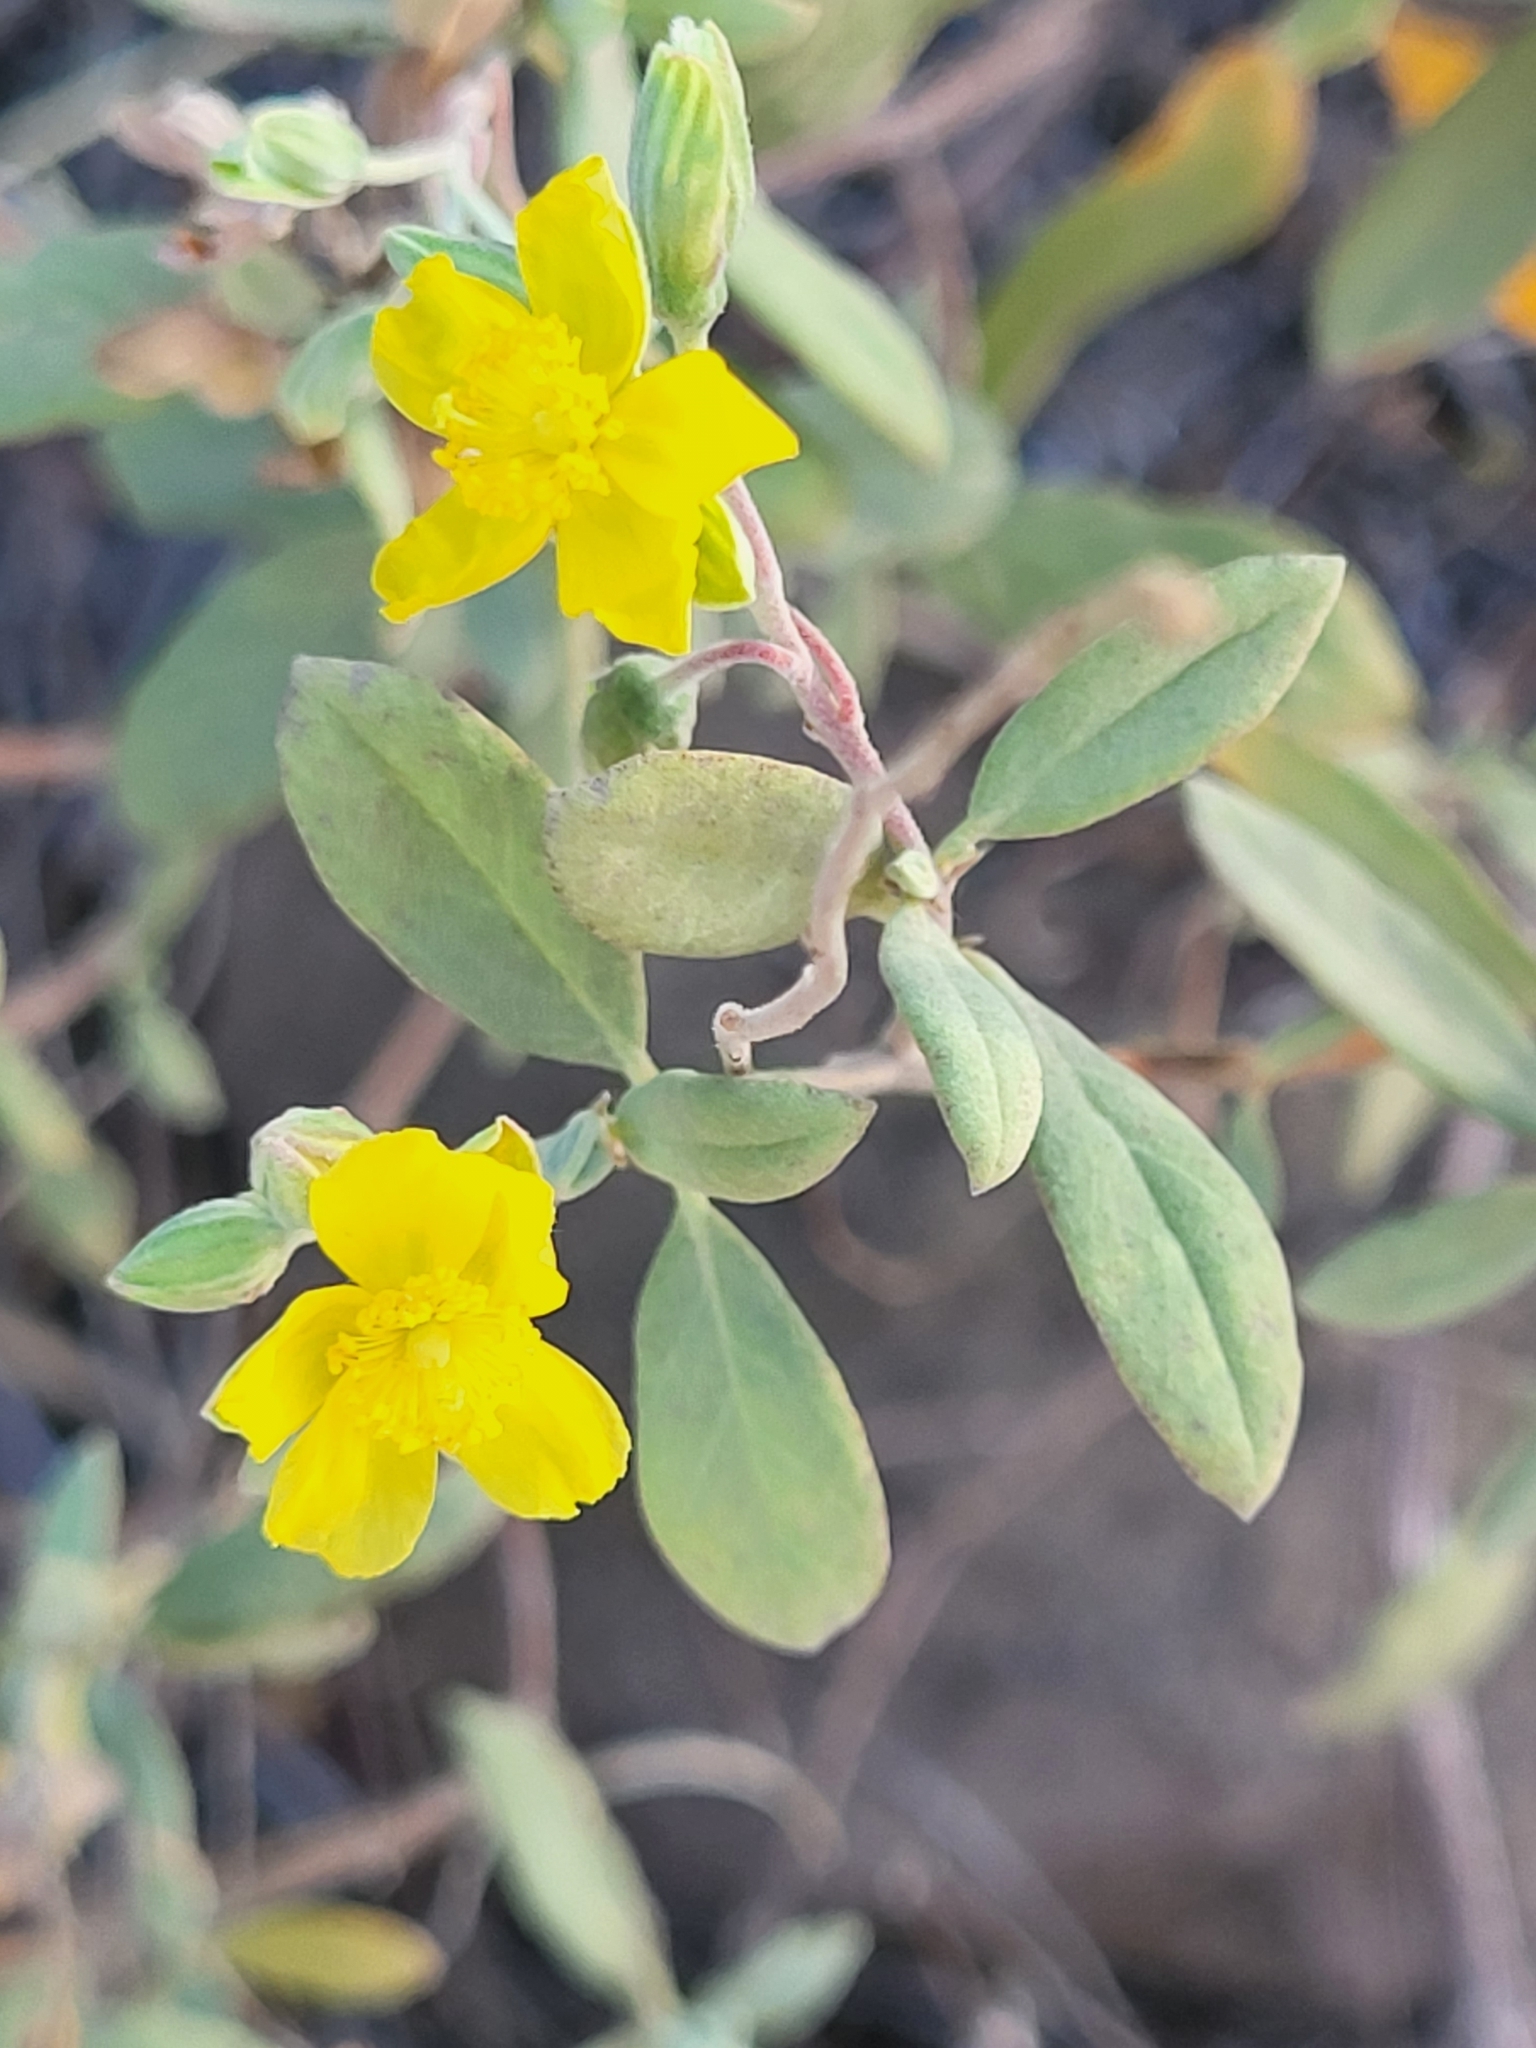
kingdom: Plantae
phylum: Tracheophyta
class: Magnoliopsida
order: Malvales
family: Cistaceae
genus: Helianthemum
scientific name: Helianthemum gorgoneum
